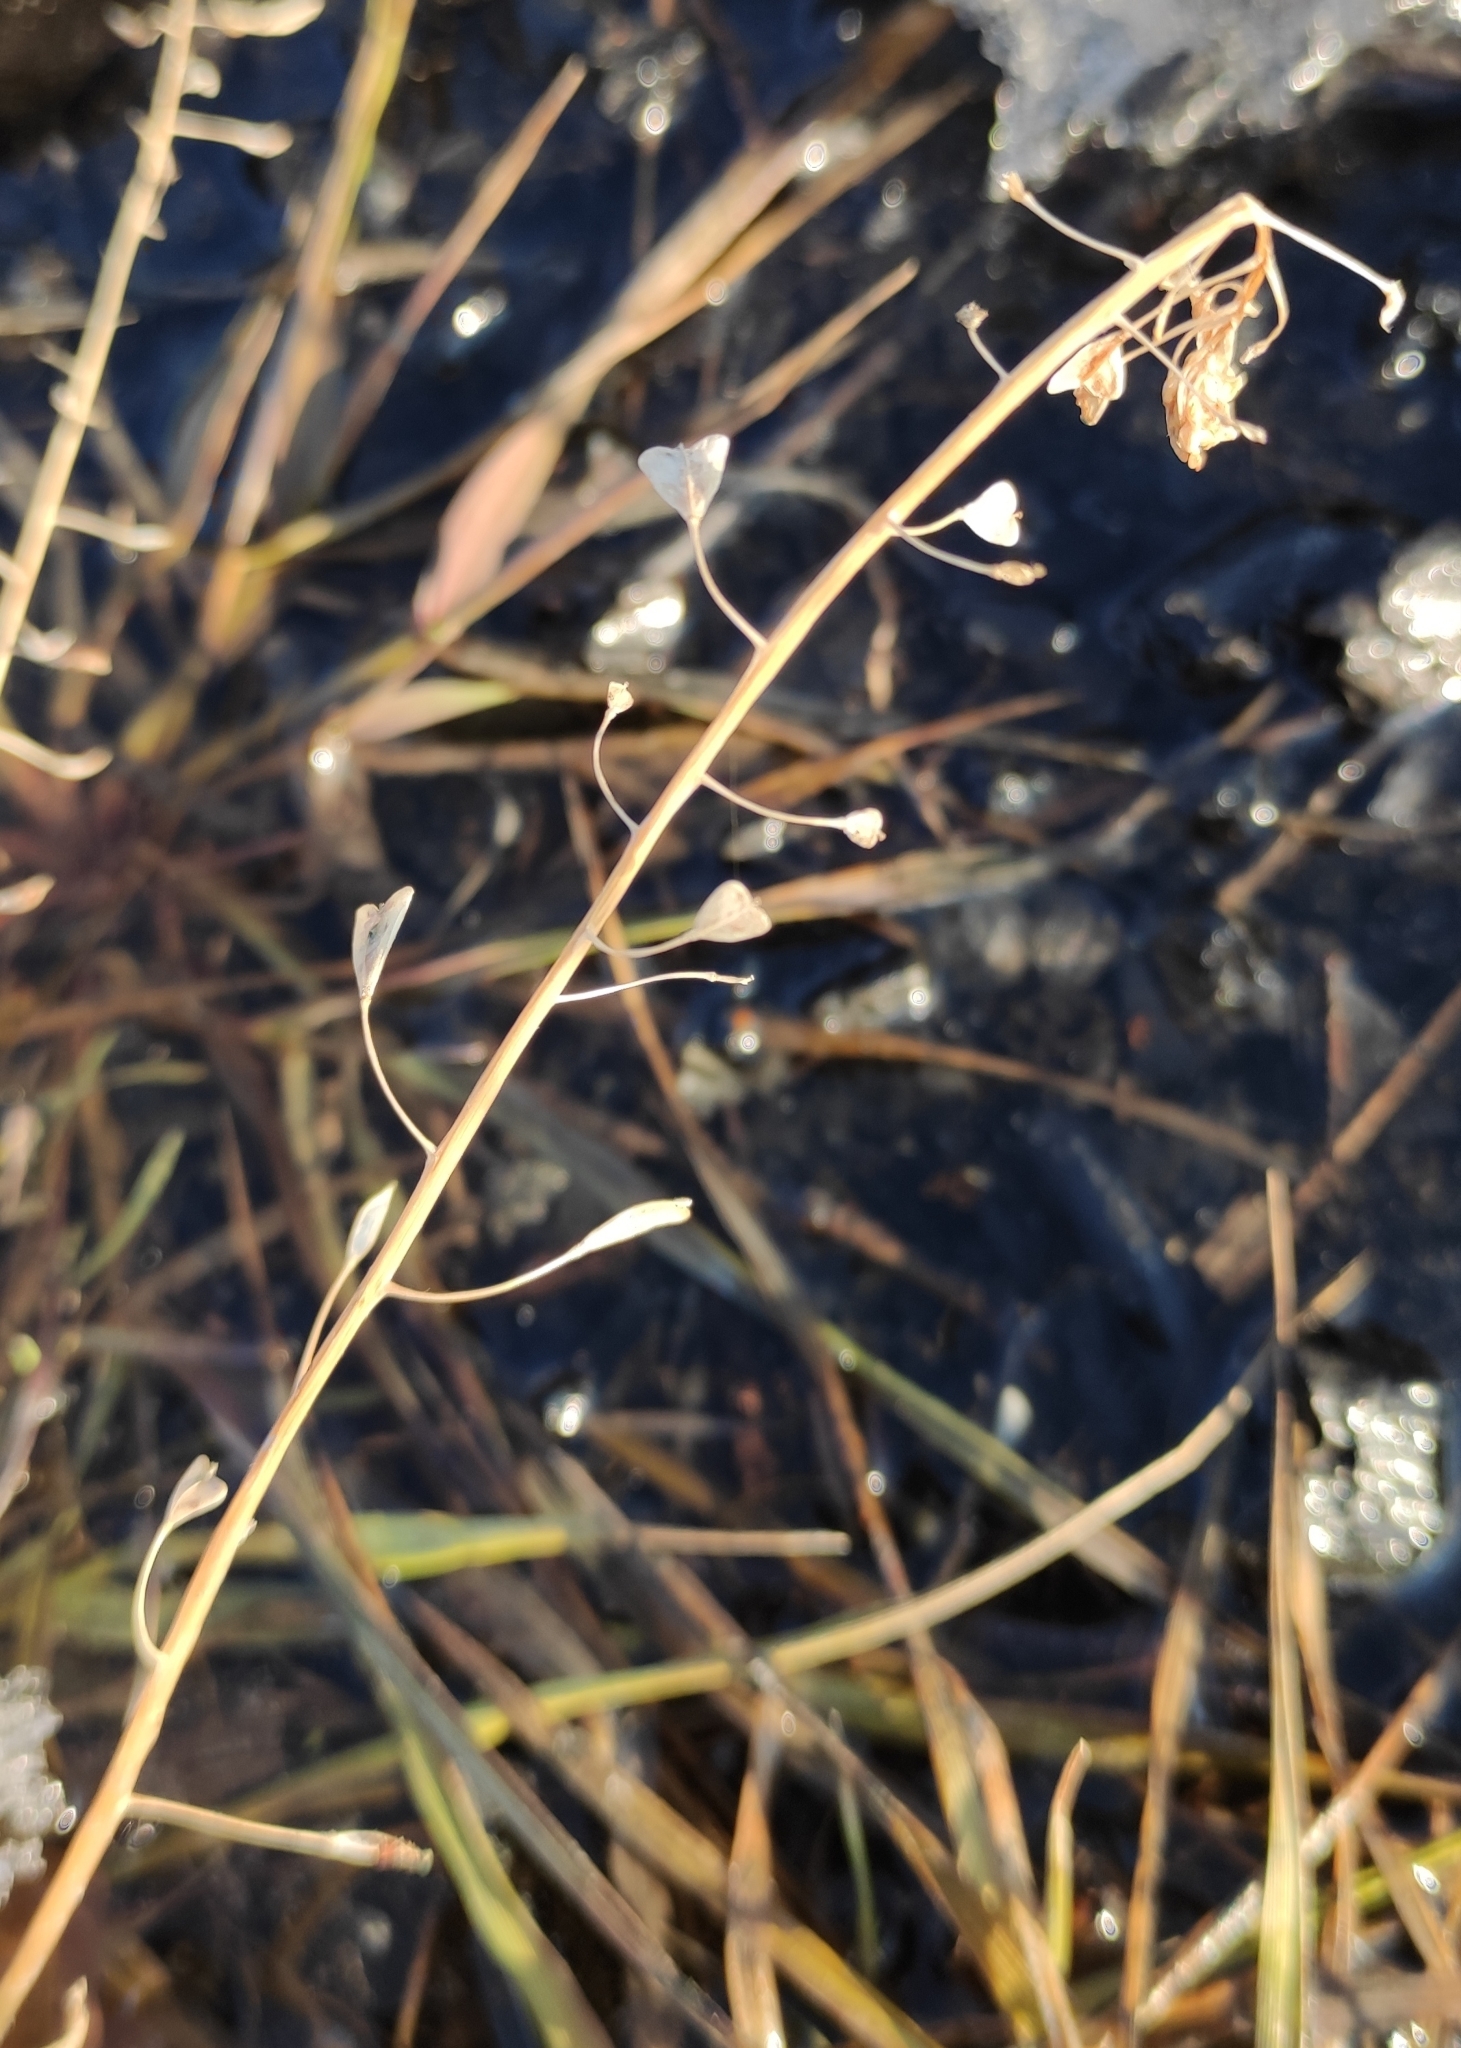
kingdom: Plantae
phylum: Tracheophyta
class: Magnoliopsida
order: Brassicales
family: Brassicaceae
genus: Capsella
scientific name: Capsella bursa-pastoris
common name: Shepherd's purse
